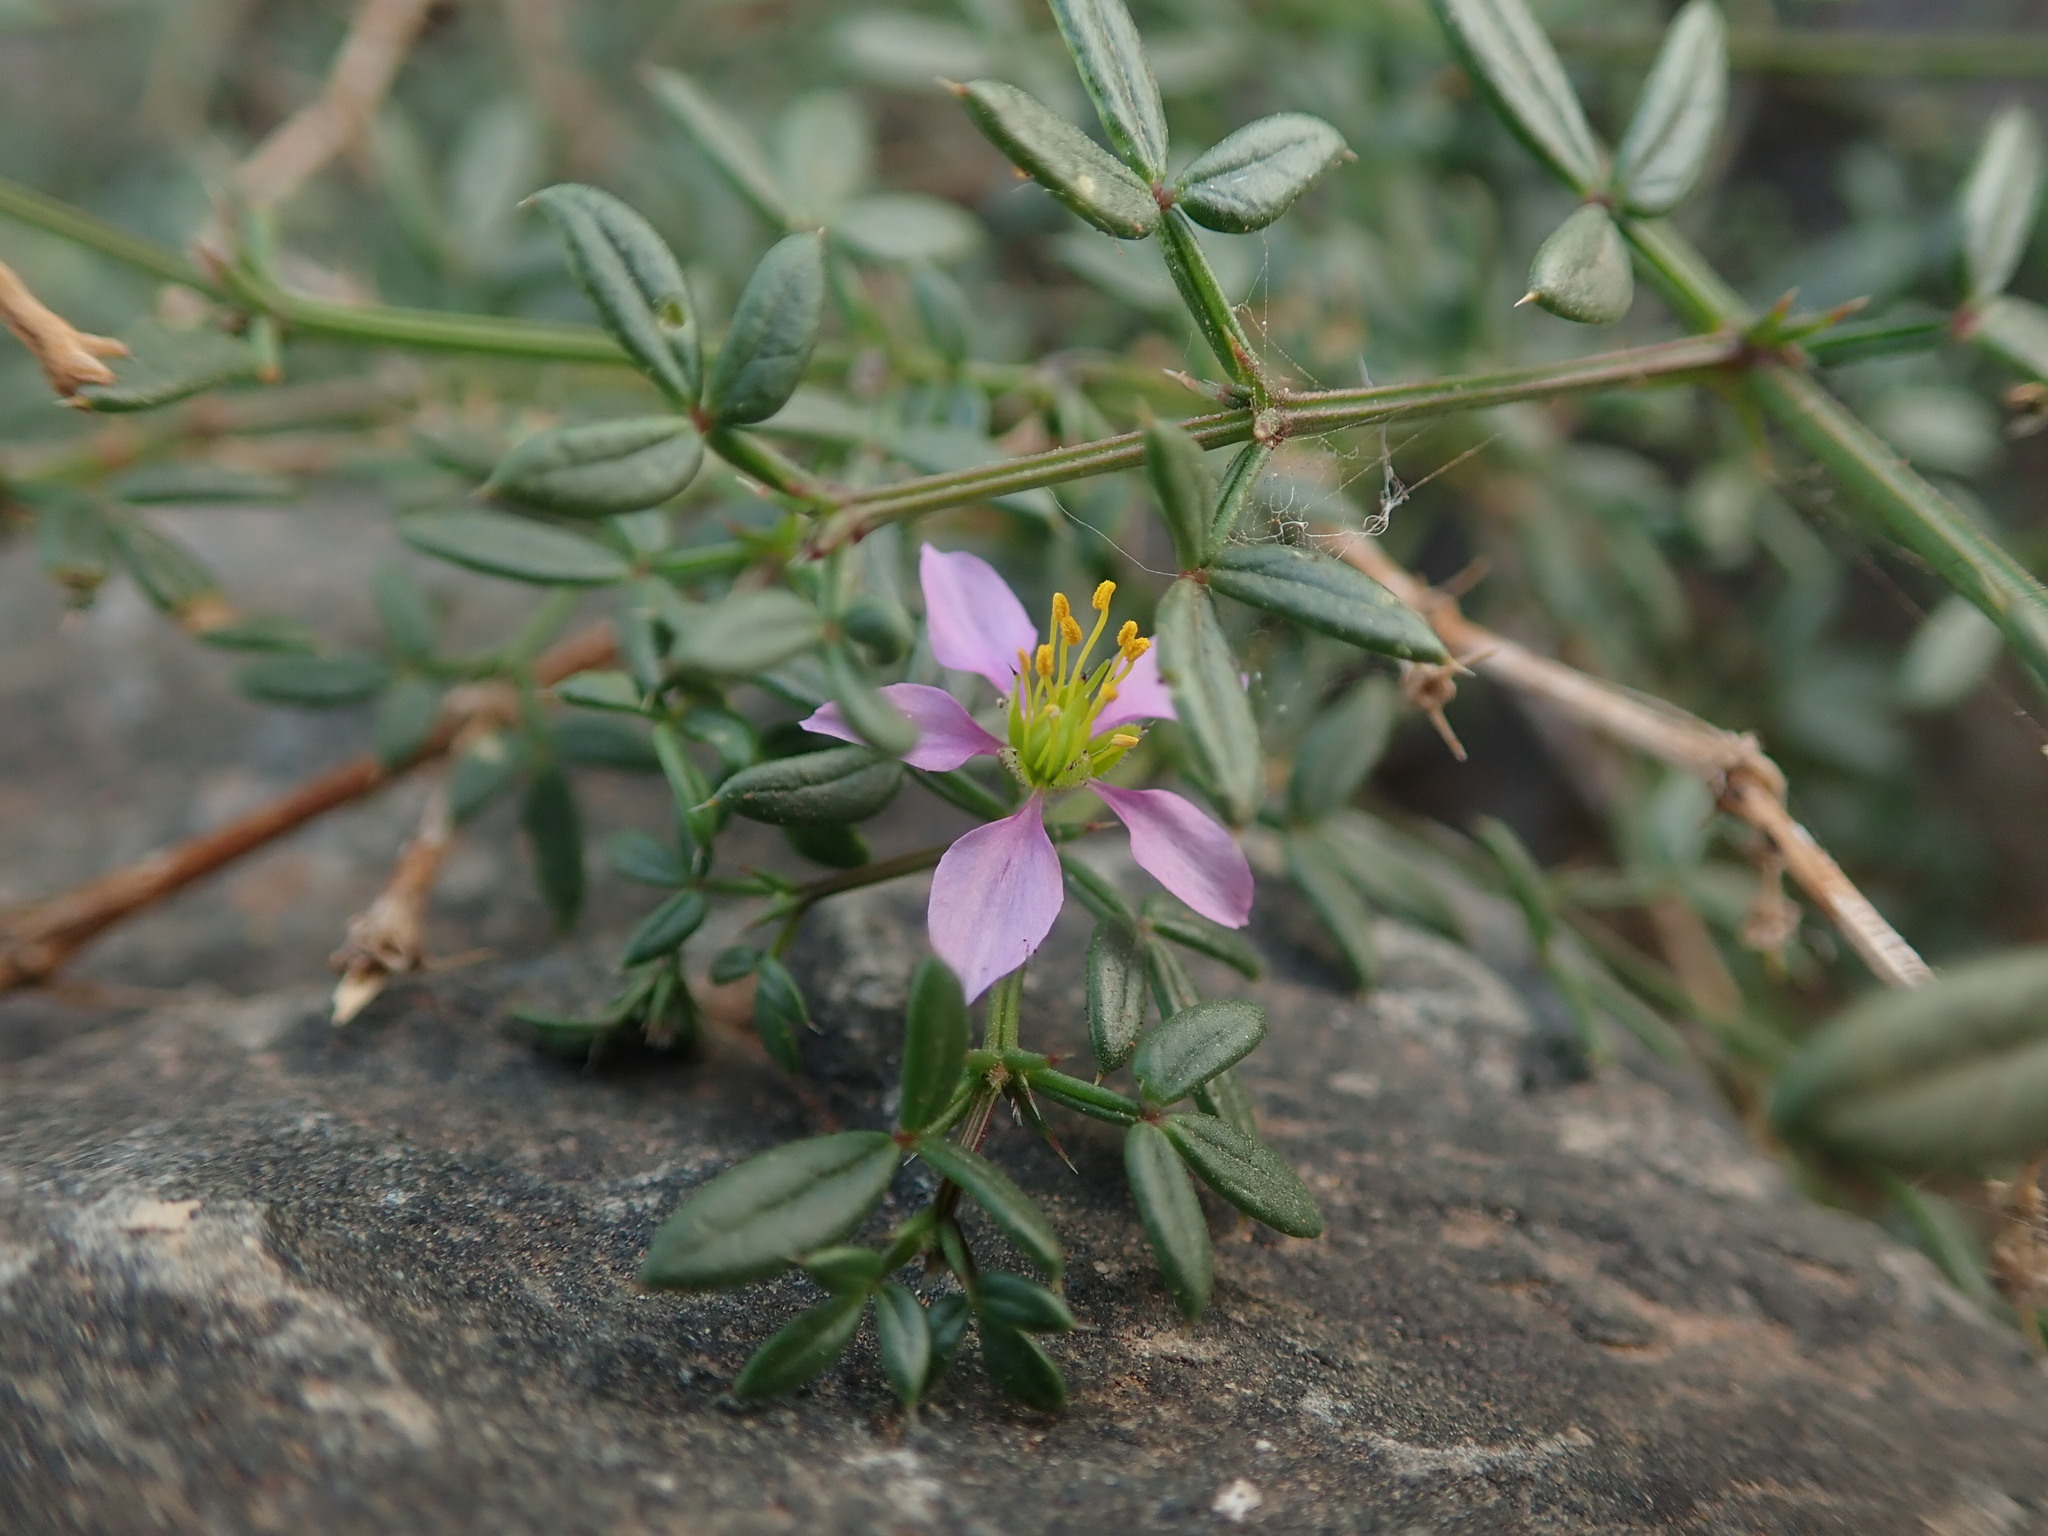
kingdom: Plantae
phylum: Tracheophyta
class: Magnoliopsida
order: Zygophyllales
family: Zygophyllaceae
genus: Fagonia
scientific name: Fagonia cretica
